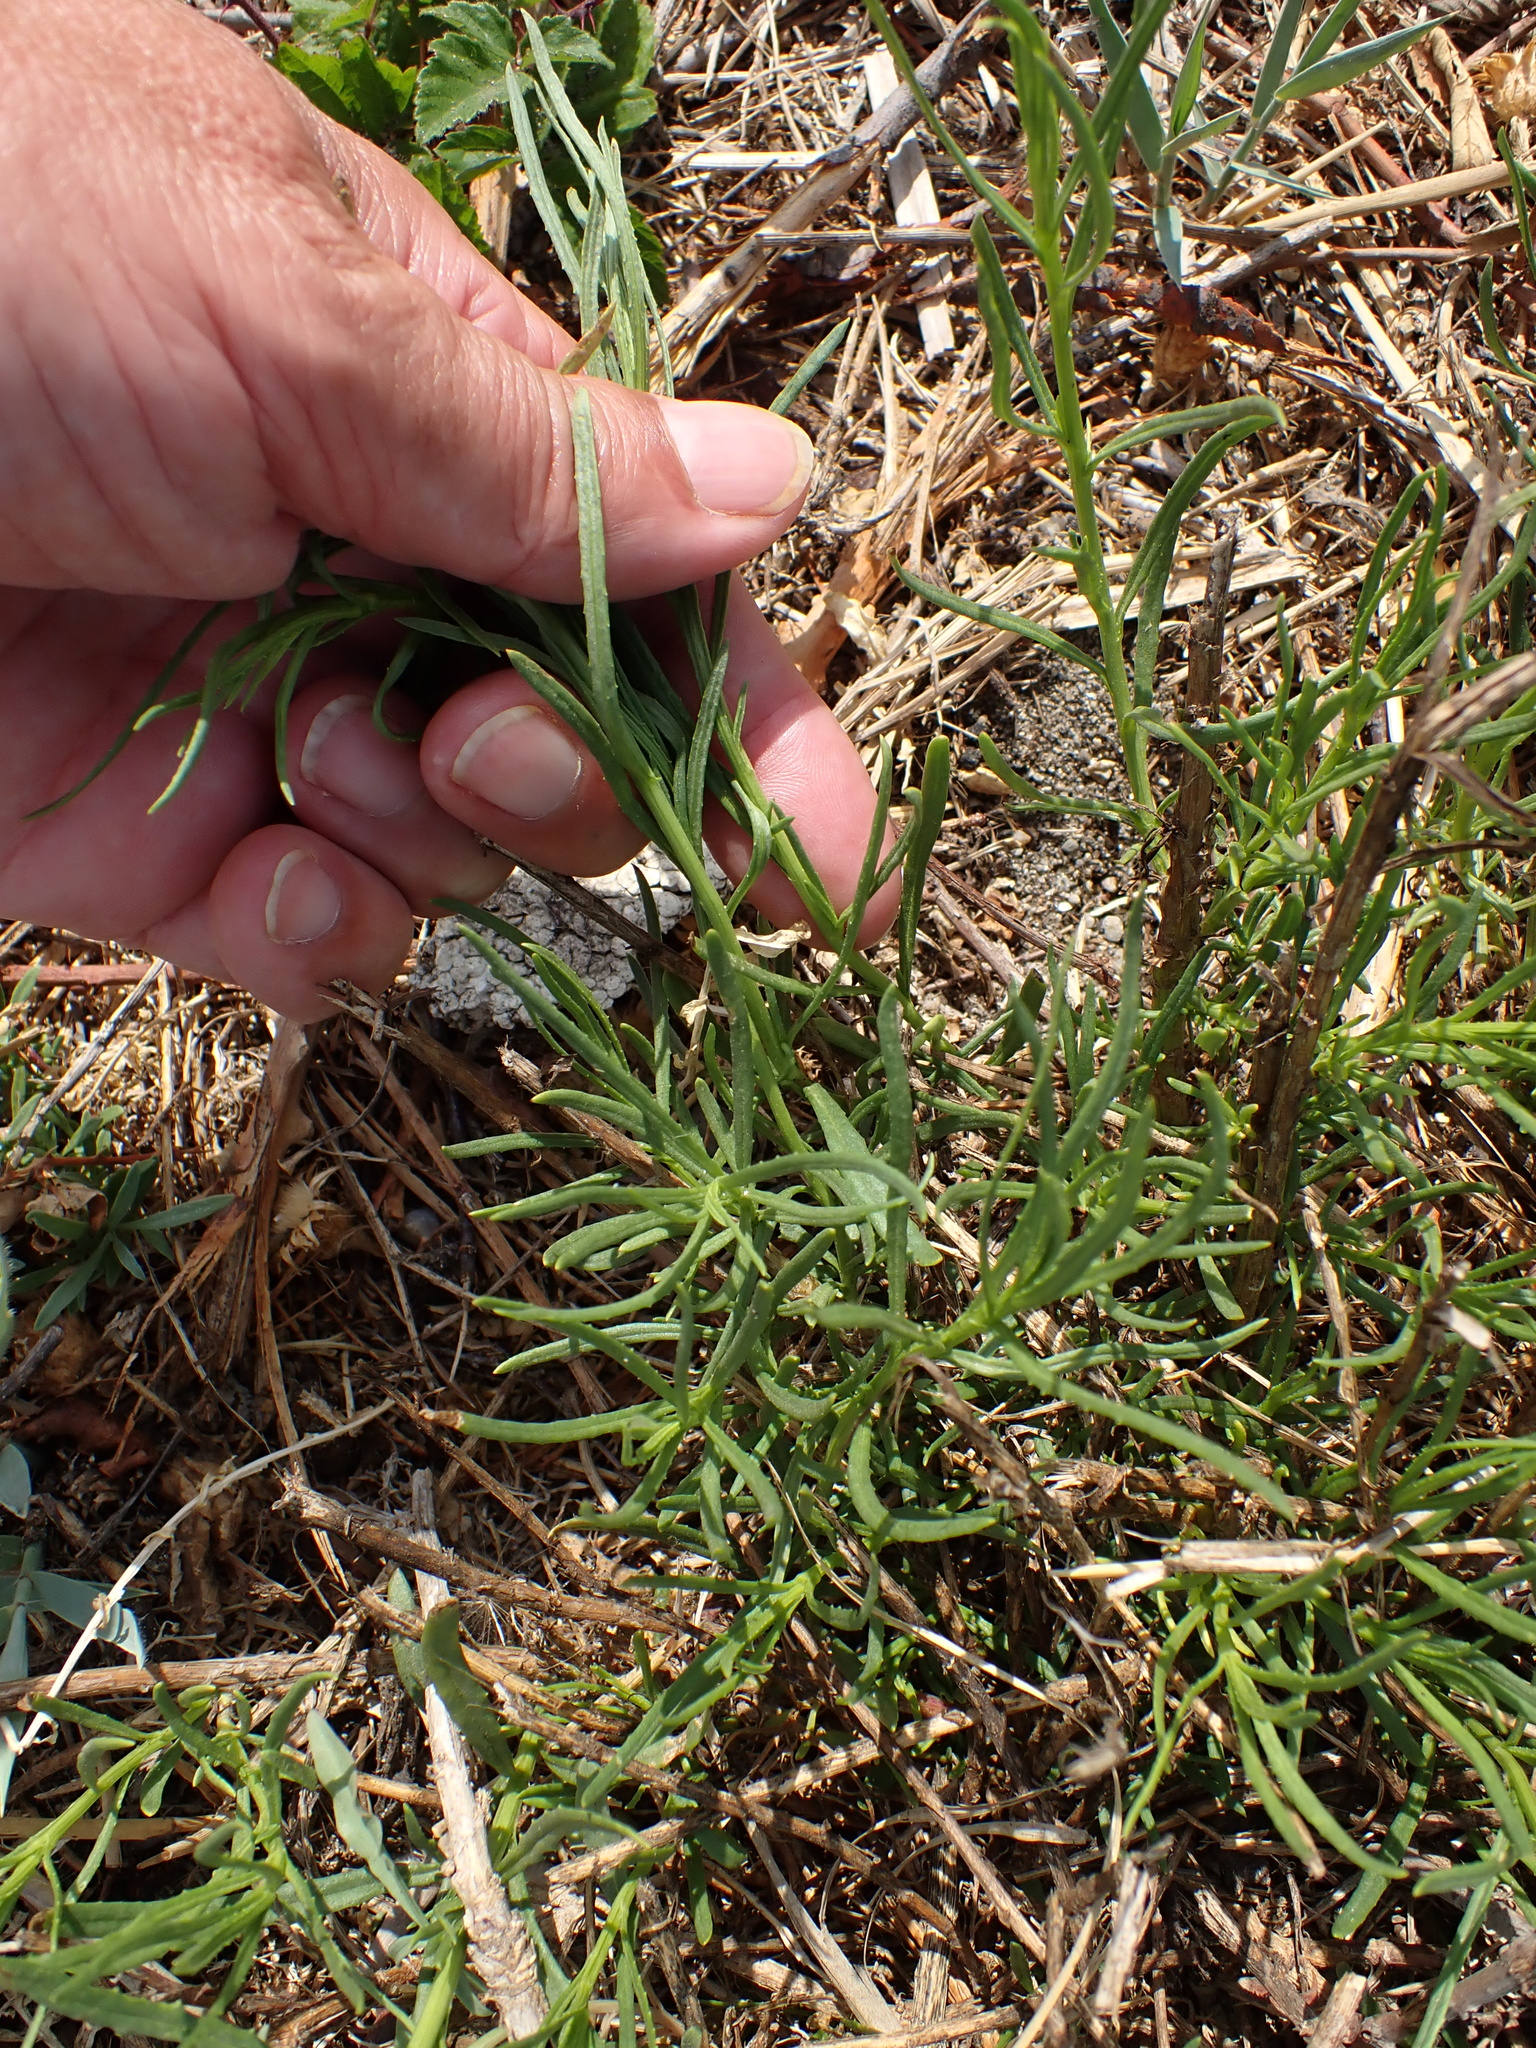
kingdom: Plantae
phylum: Tracheophyta
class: Magnoliopsida
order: Asterales
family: Asteraceae
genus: Senecio
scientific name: Senecio inaequidens
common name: Narrow-leaved ragwort
